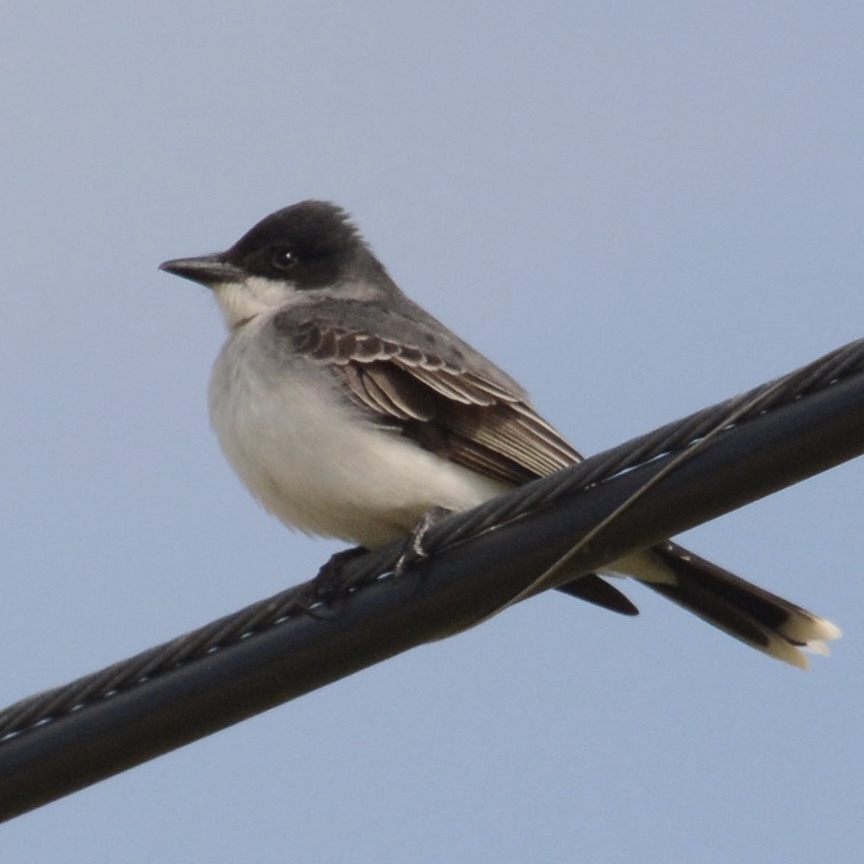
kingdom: Animalia
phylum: Chordata
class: Aves
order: Passeriformes
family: Tyrannidae
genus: Tyrannus
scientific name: Tyrannus tyrannus
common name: Eastern kingbird
